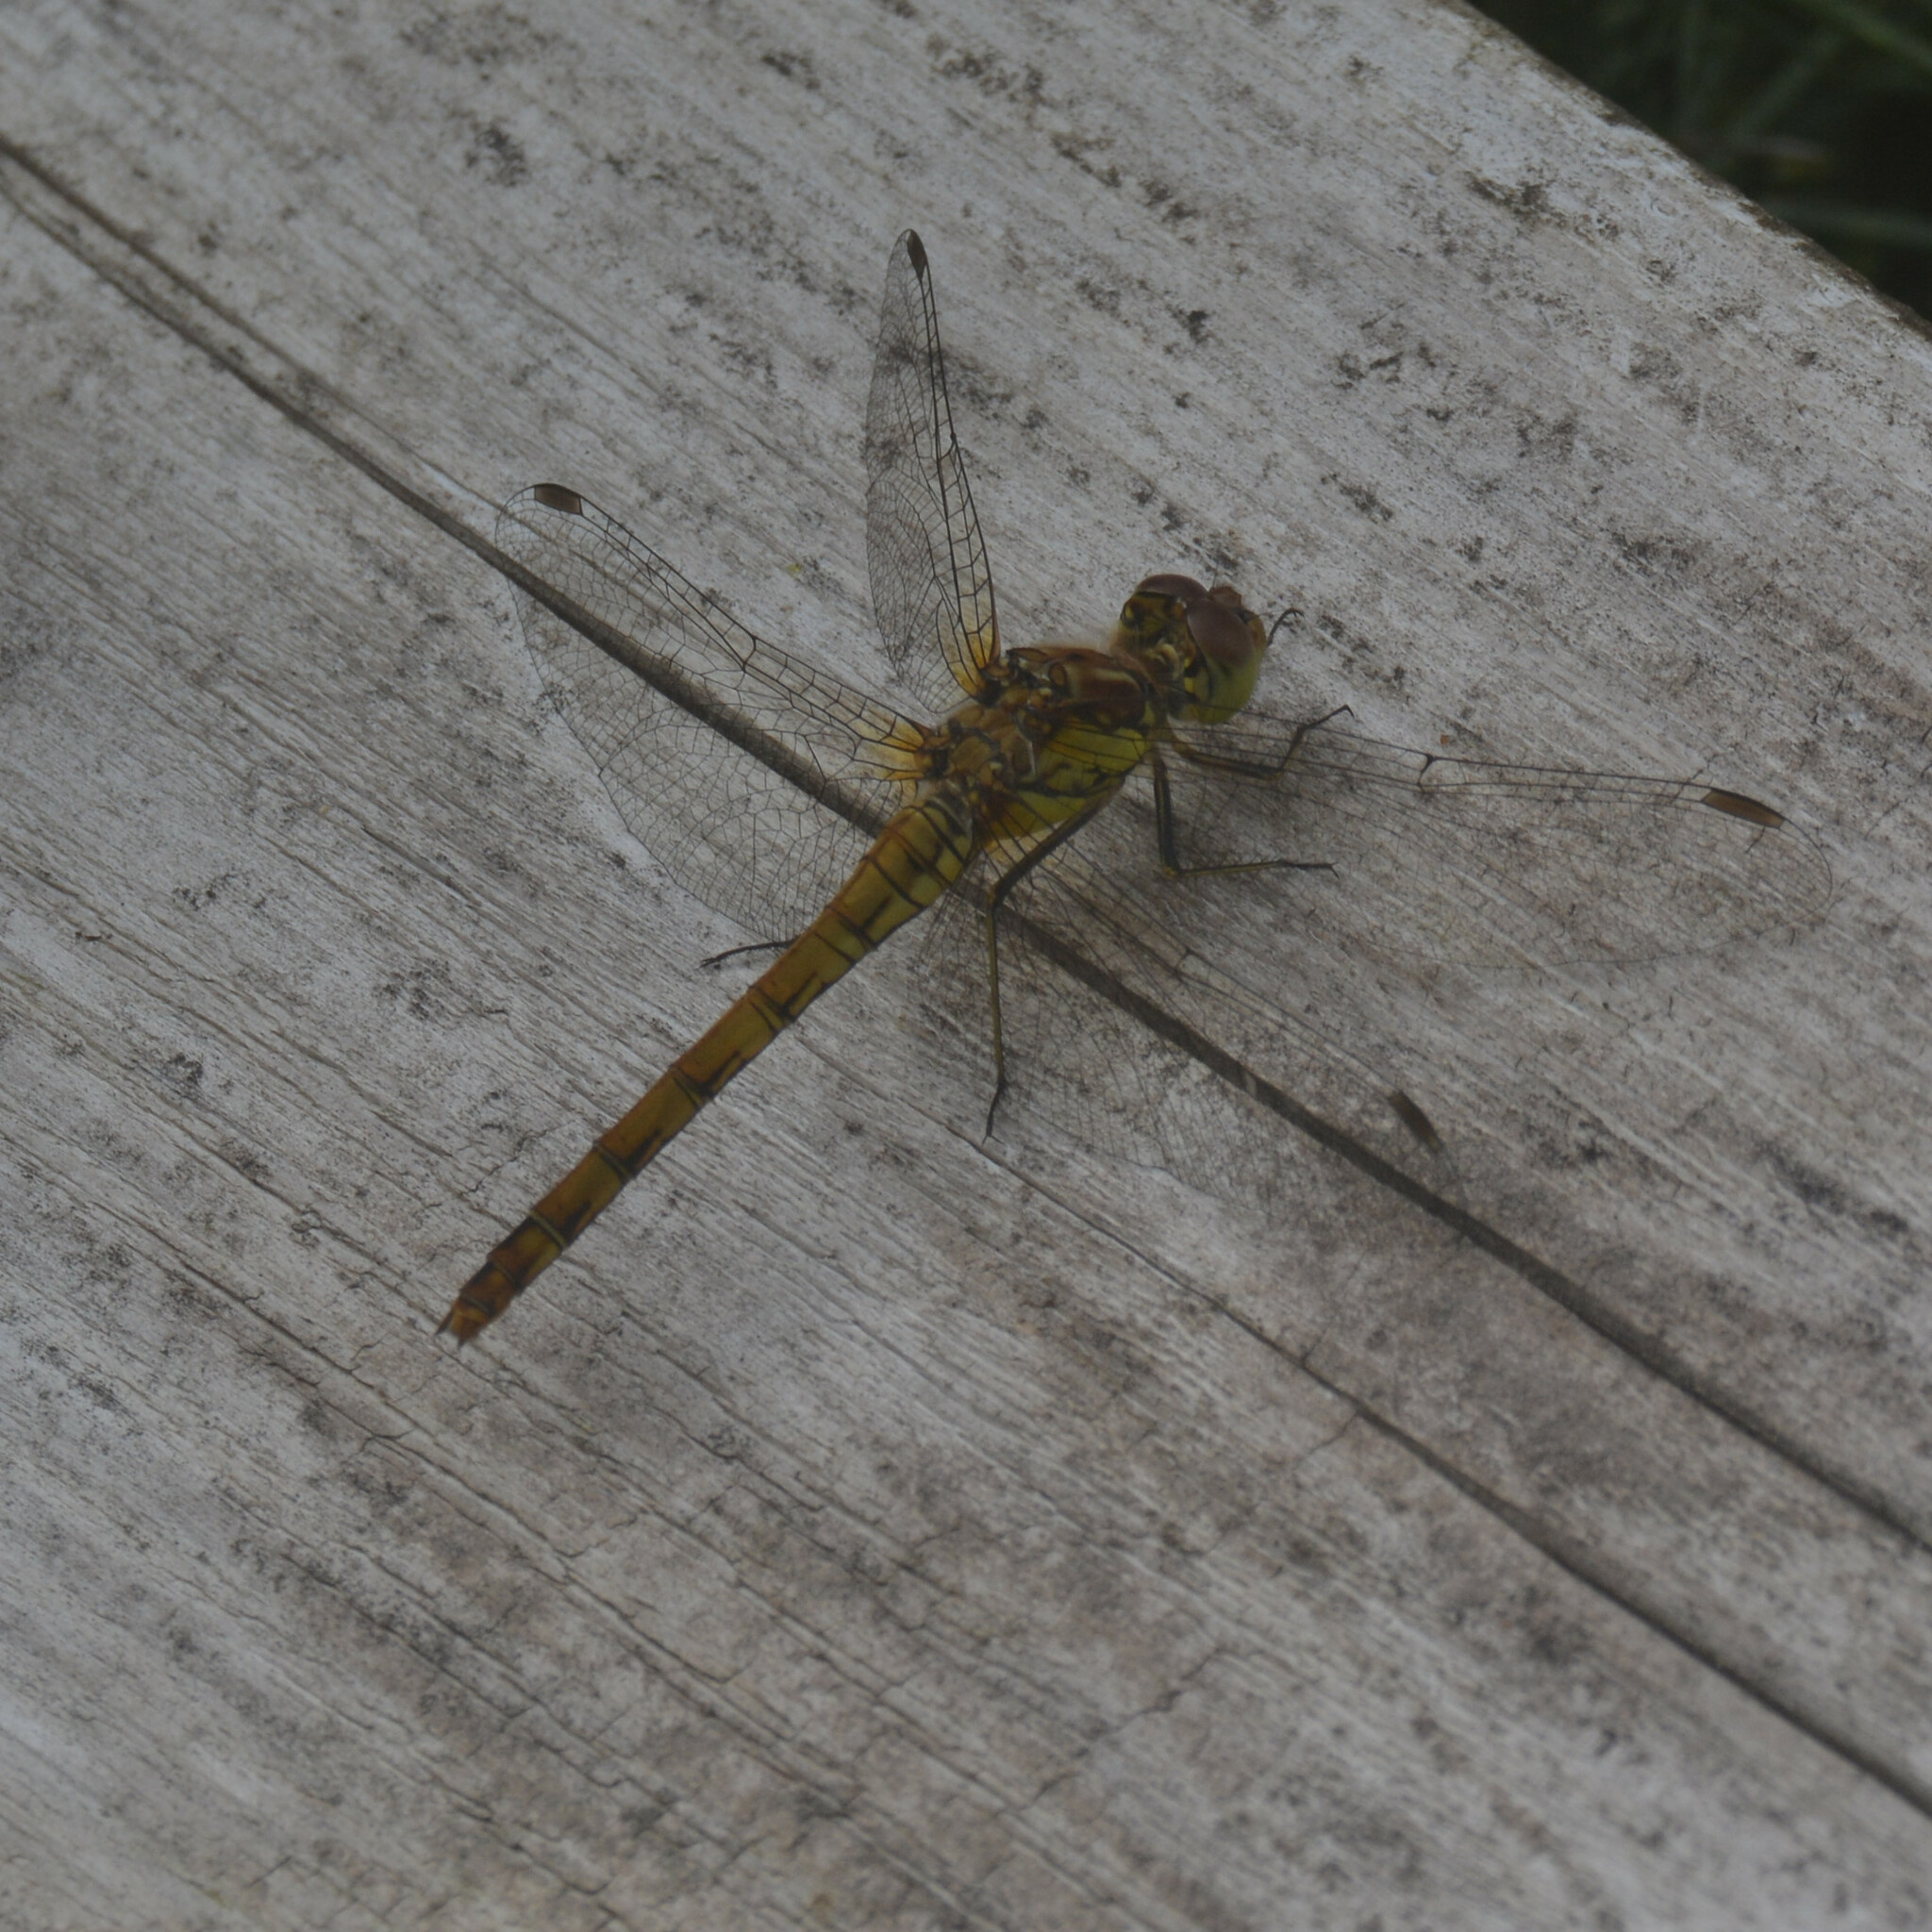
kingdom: Animalia
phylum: Arthropoda
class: Insecta
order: Odonata
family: Libellulidae
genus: Sympetrum
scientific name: Sympetrum striolatum
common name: Common darter
